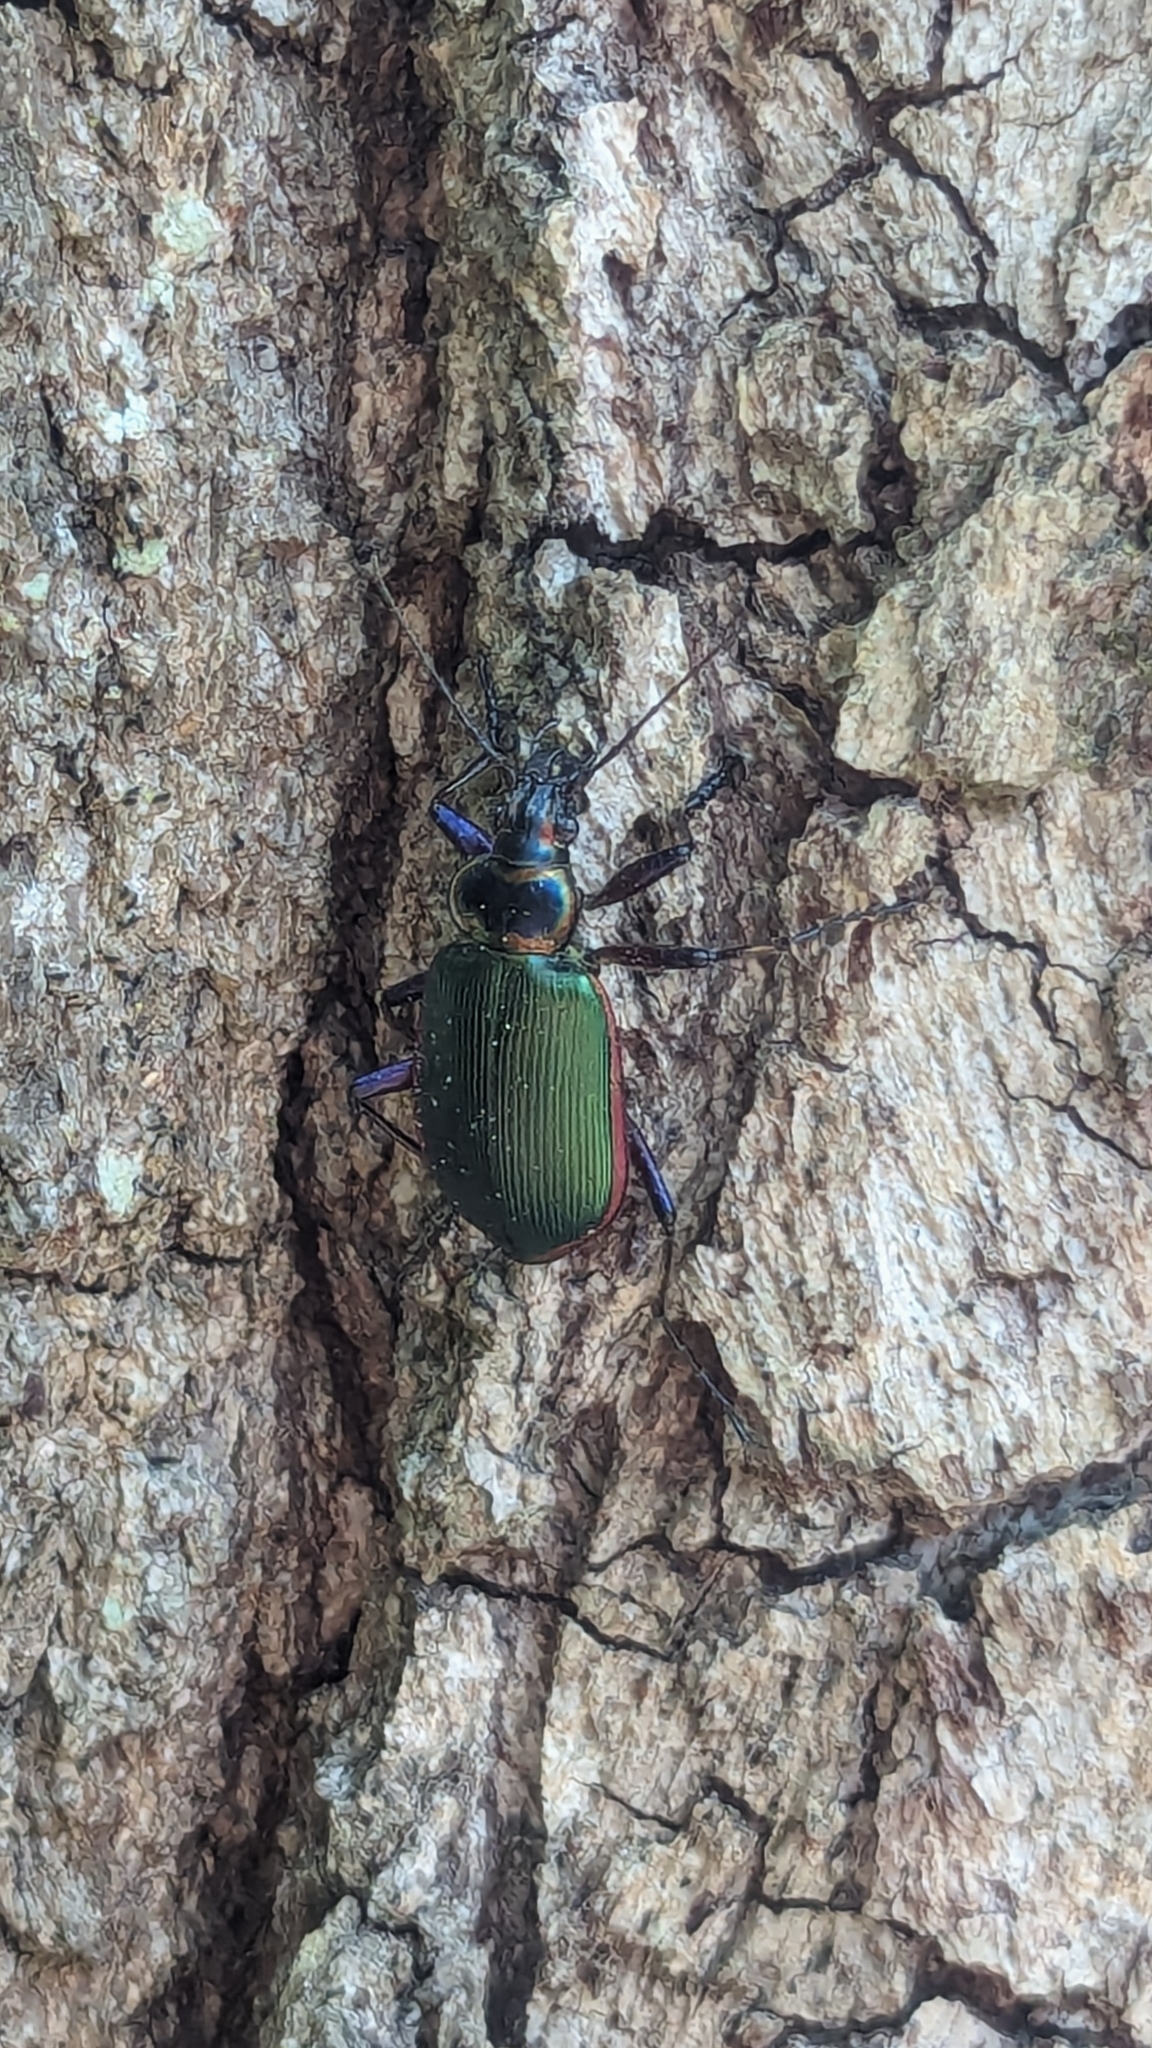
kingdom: Animalia
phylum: Arthropoda
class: Insecta
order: Coleoptera
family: Carabidae
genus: Calosoma
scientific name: Calosoma scrutator
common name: Fiery searcher beetle
